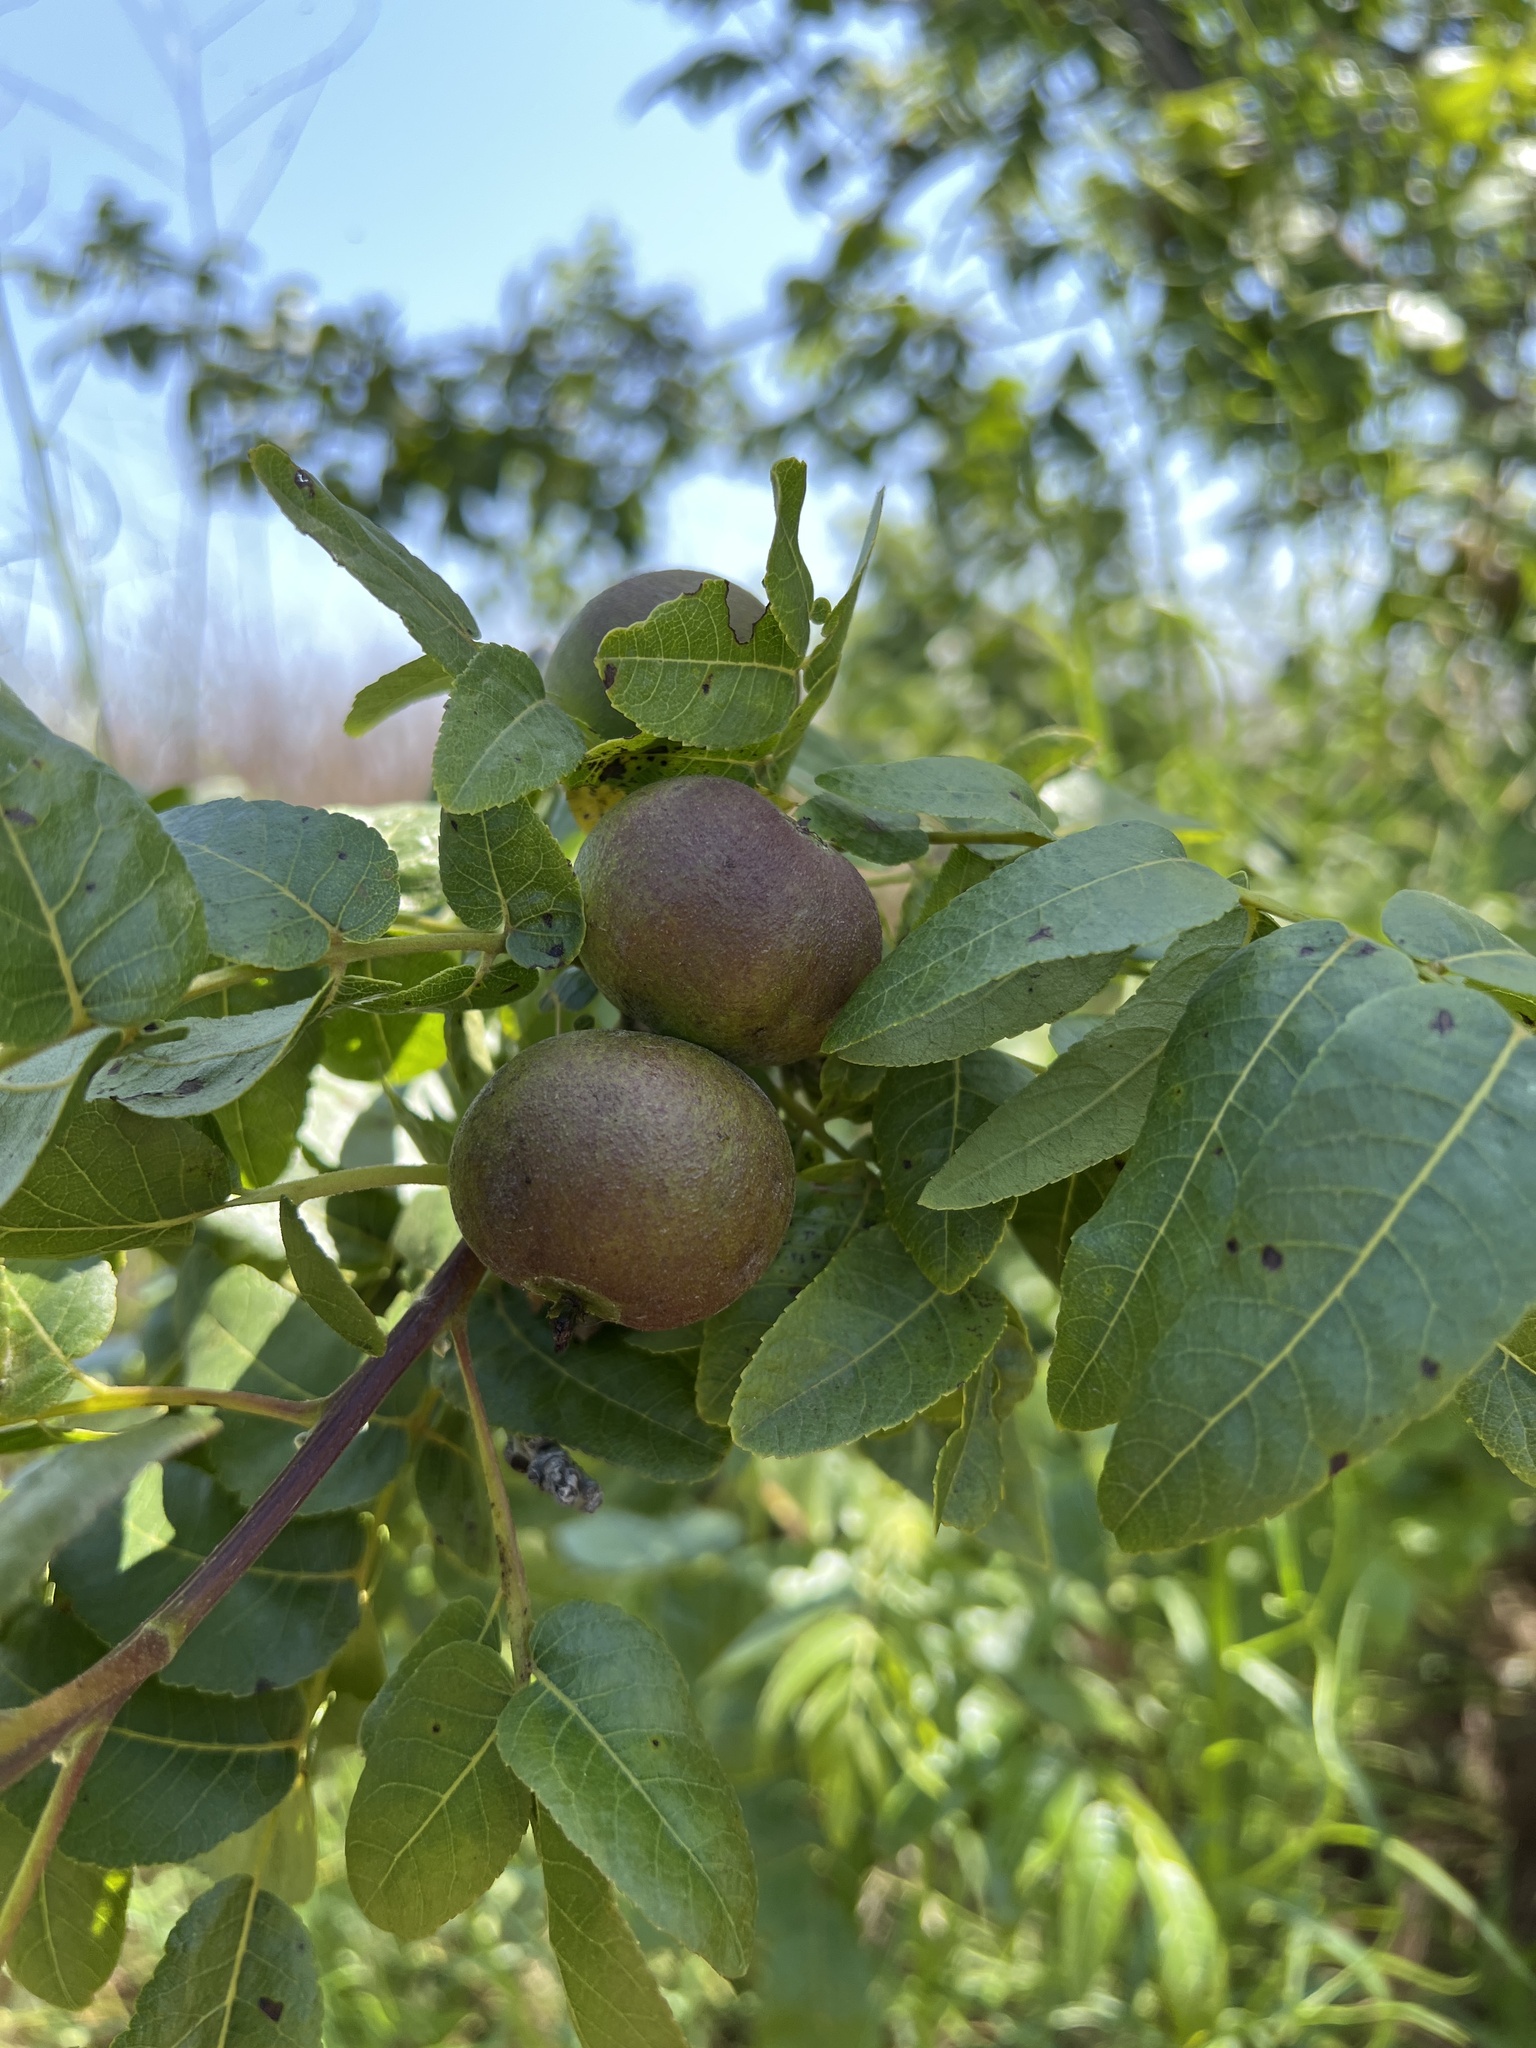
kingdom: Plantae
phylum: Tracheophyta
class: Magnoliopsida
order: Fagales
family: Juglandaceae
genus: Juglans
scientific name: Juglans californica
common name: Southern california black walnut
